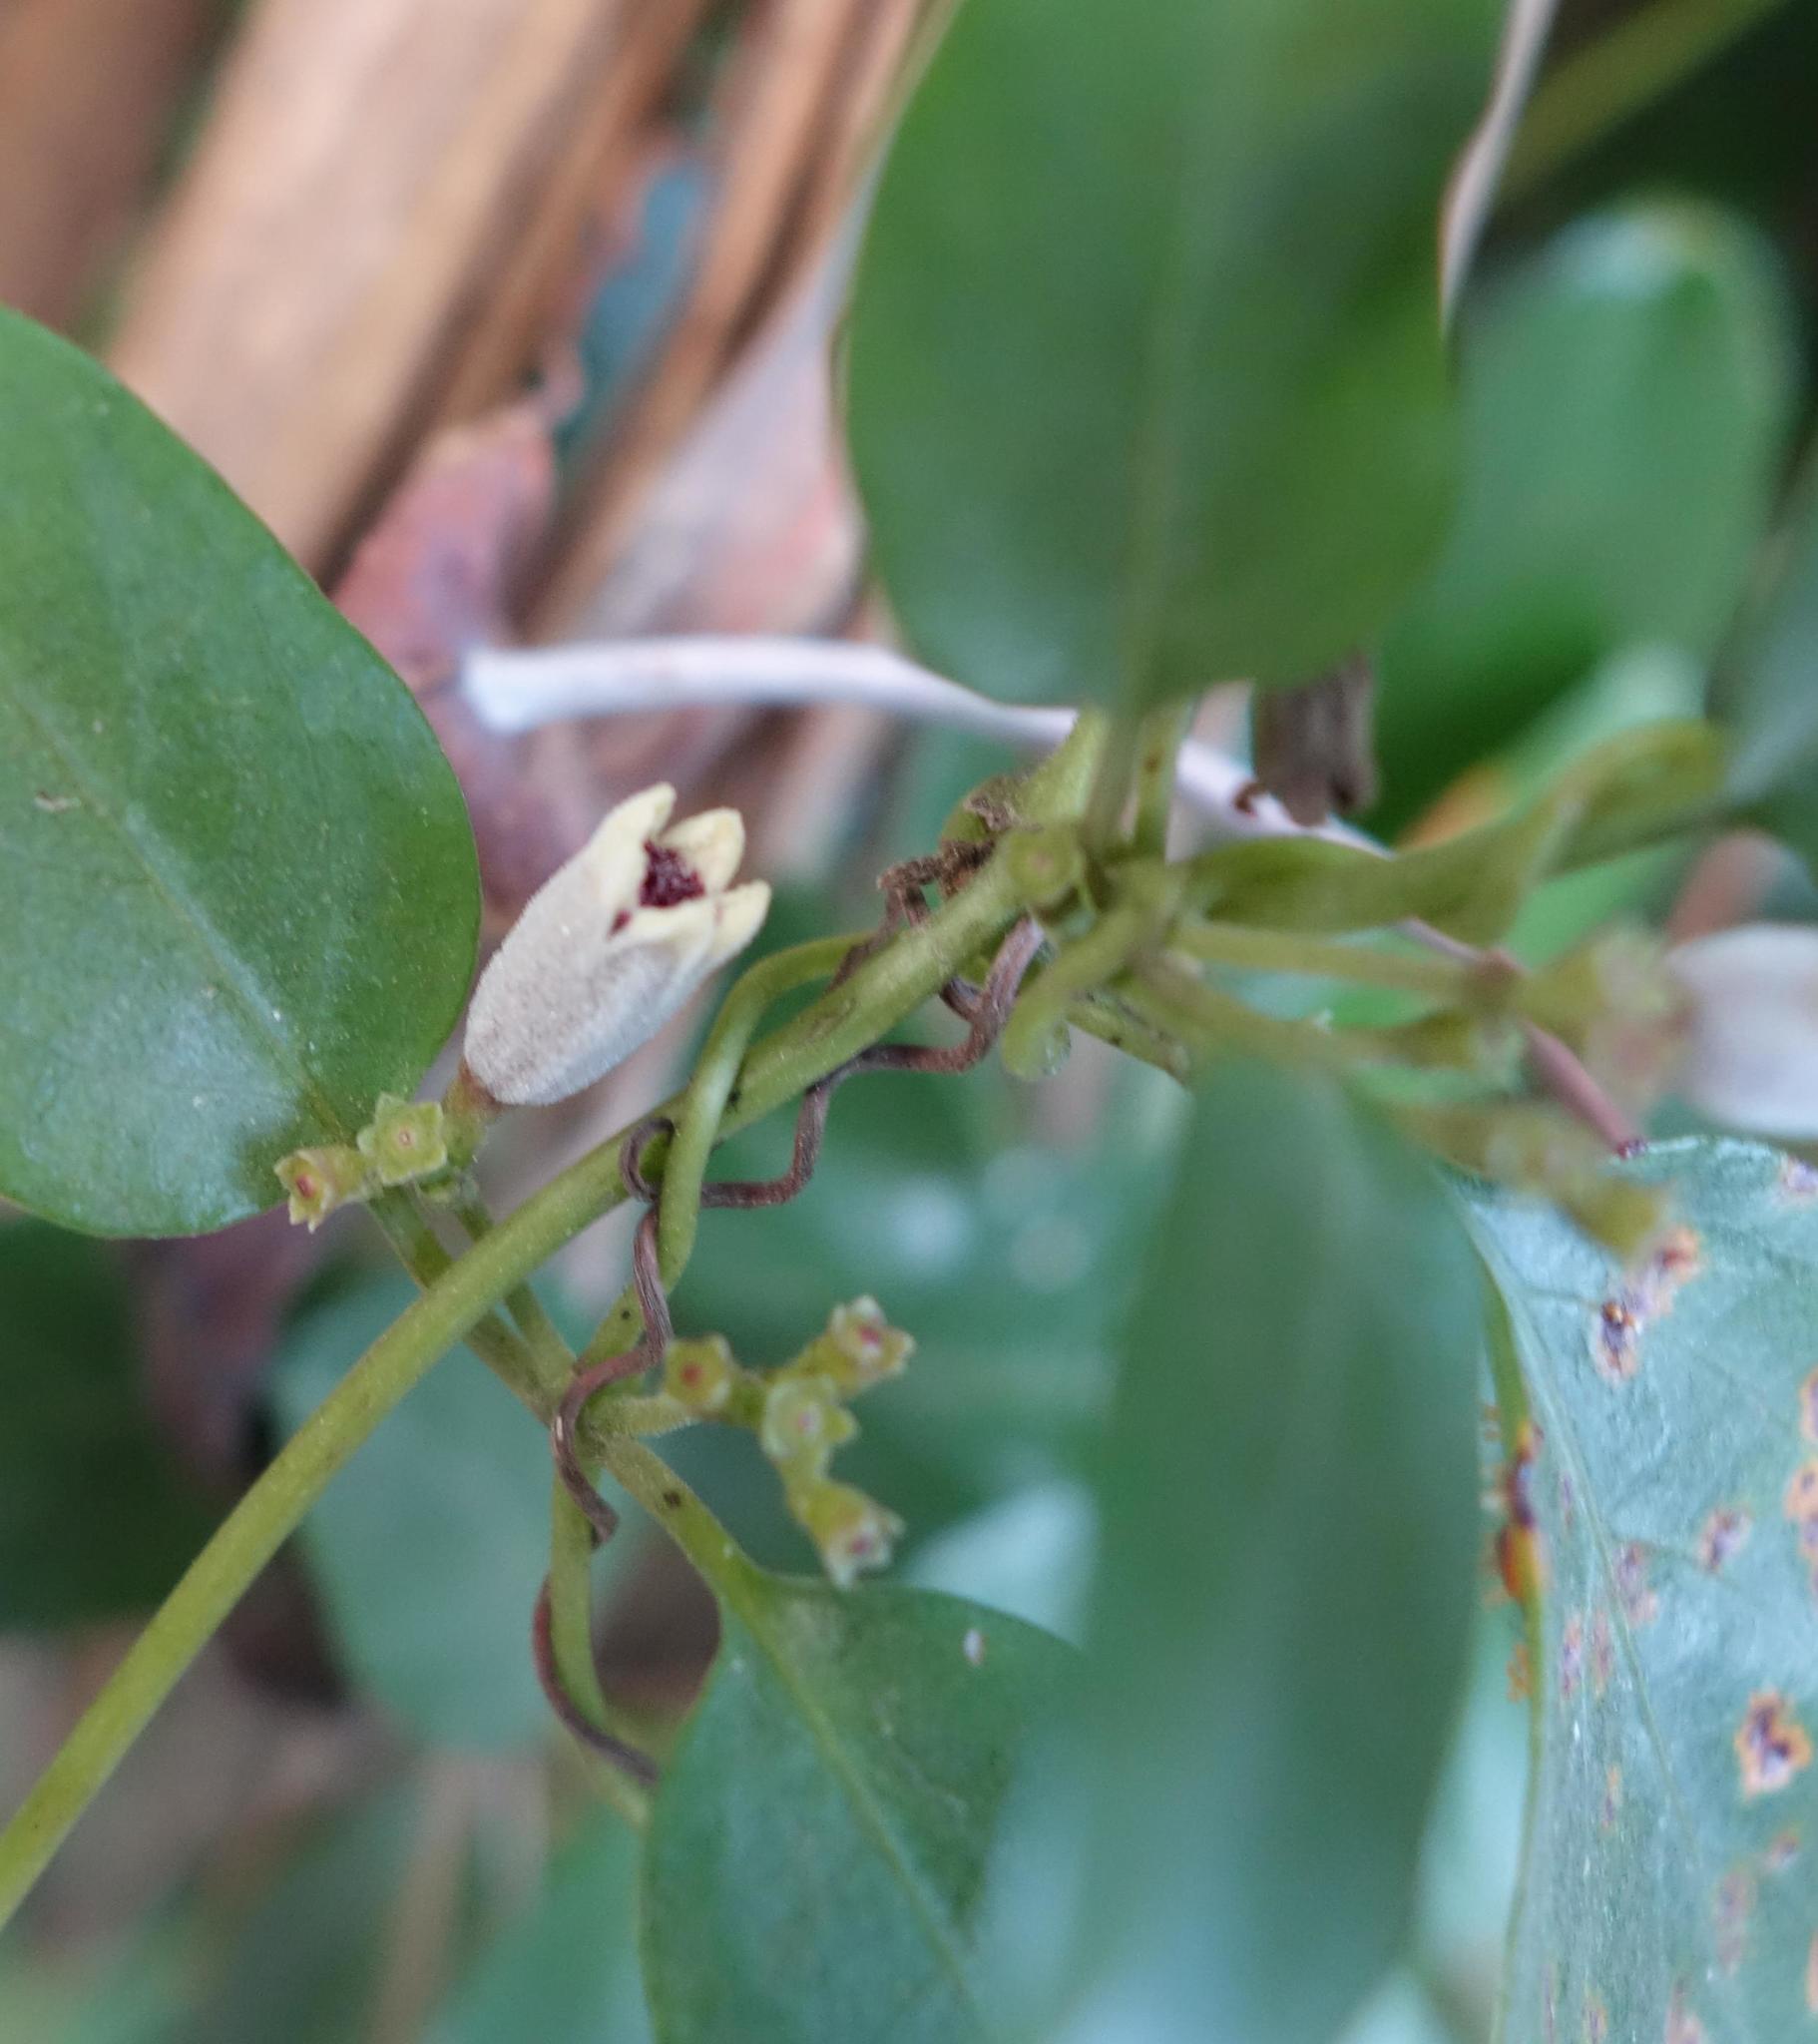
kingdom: Plantae
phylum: Tracheophyta
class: Magnoliopsida
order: Gentianales
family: Rubiaceae
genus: Paederia
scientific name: Paederia foetida
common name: Stinkvine
